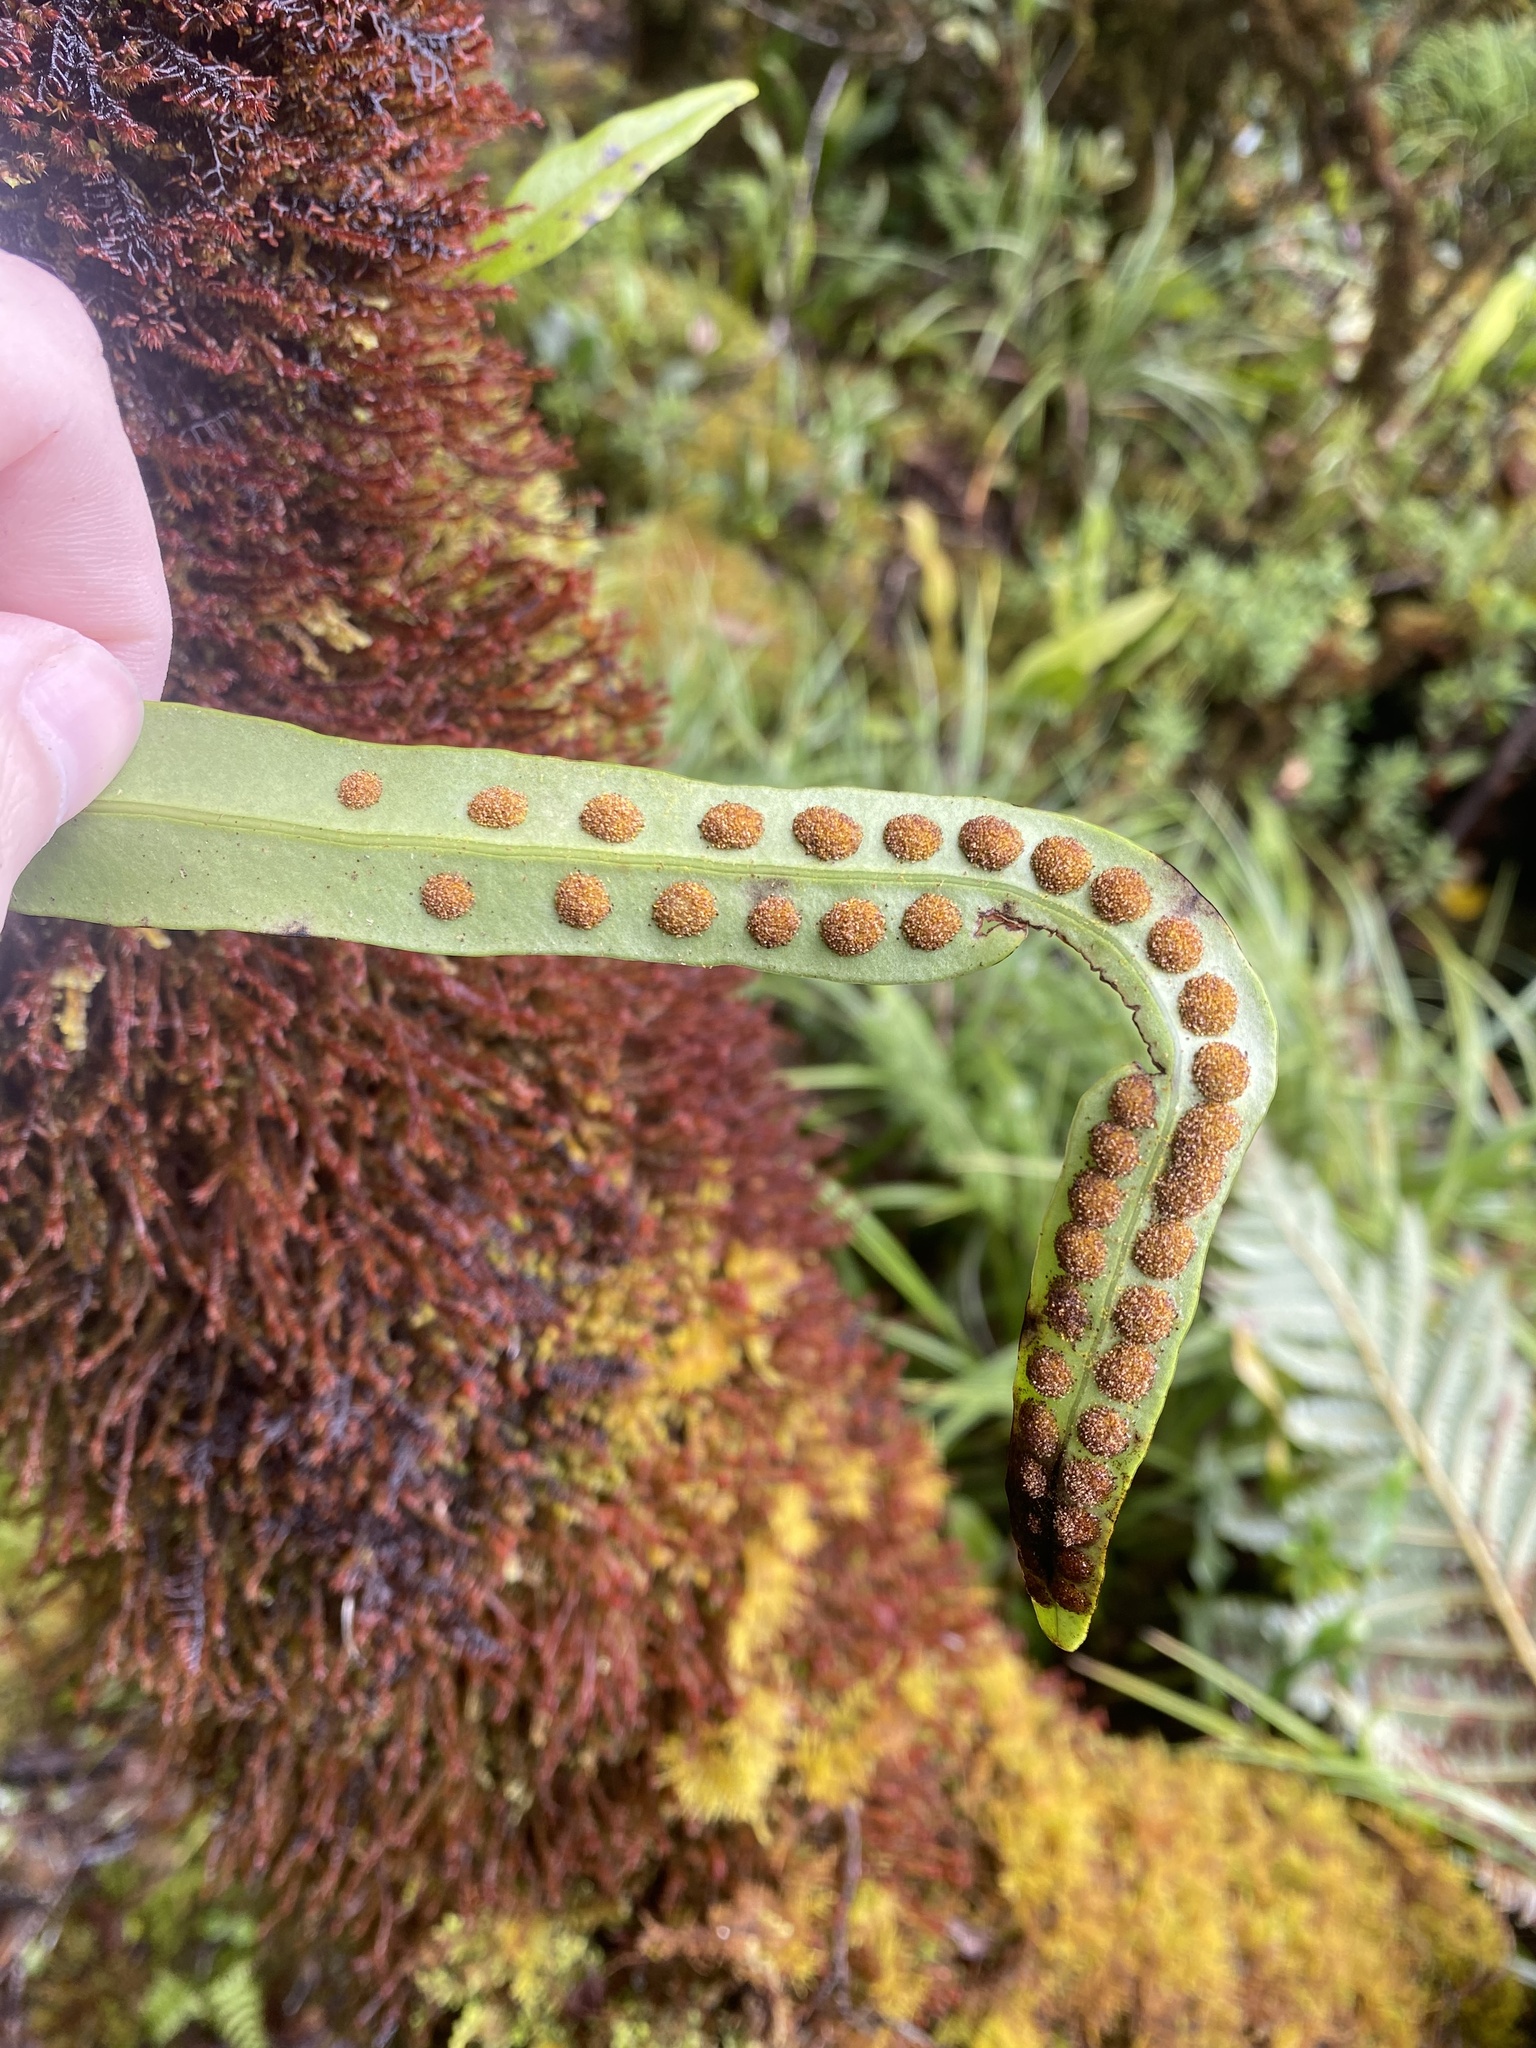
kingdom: Plantae
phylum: Tracheophyta
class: Polypodiopsida
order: Polypodiales
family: Polypodiaceae
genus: Lepisorus
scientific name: Lepisorus thunbergianus
